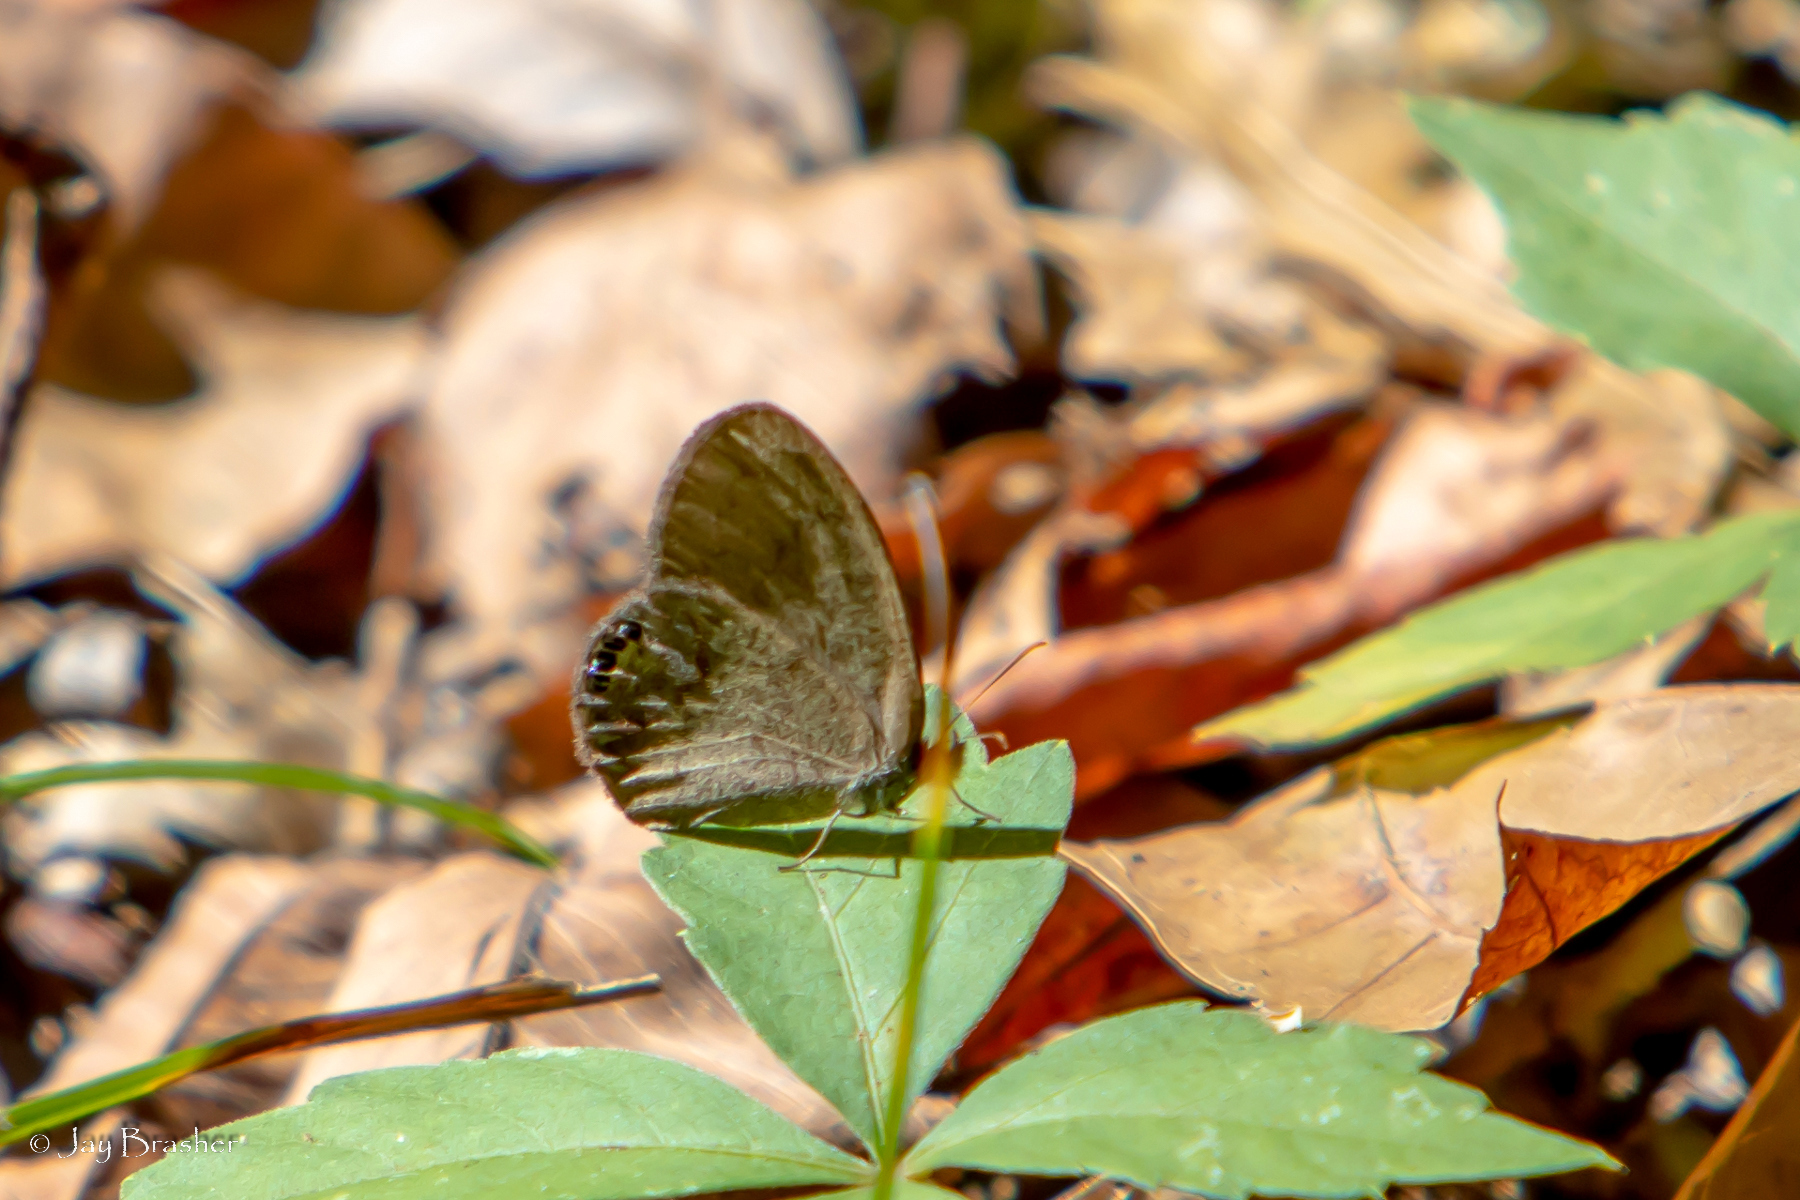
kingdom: Animalia
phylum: Arthropoda
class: Insecta
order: Lepidoptera
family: Nymphalidae
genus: Euptychia
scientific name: Euptychia cornelius
